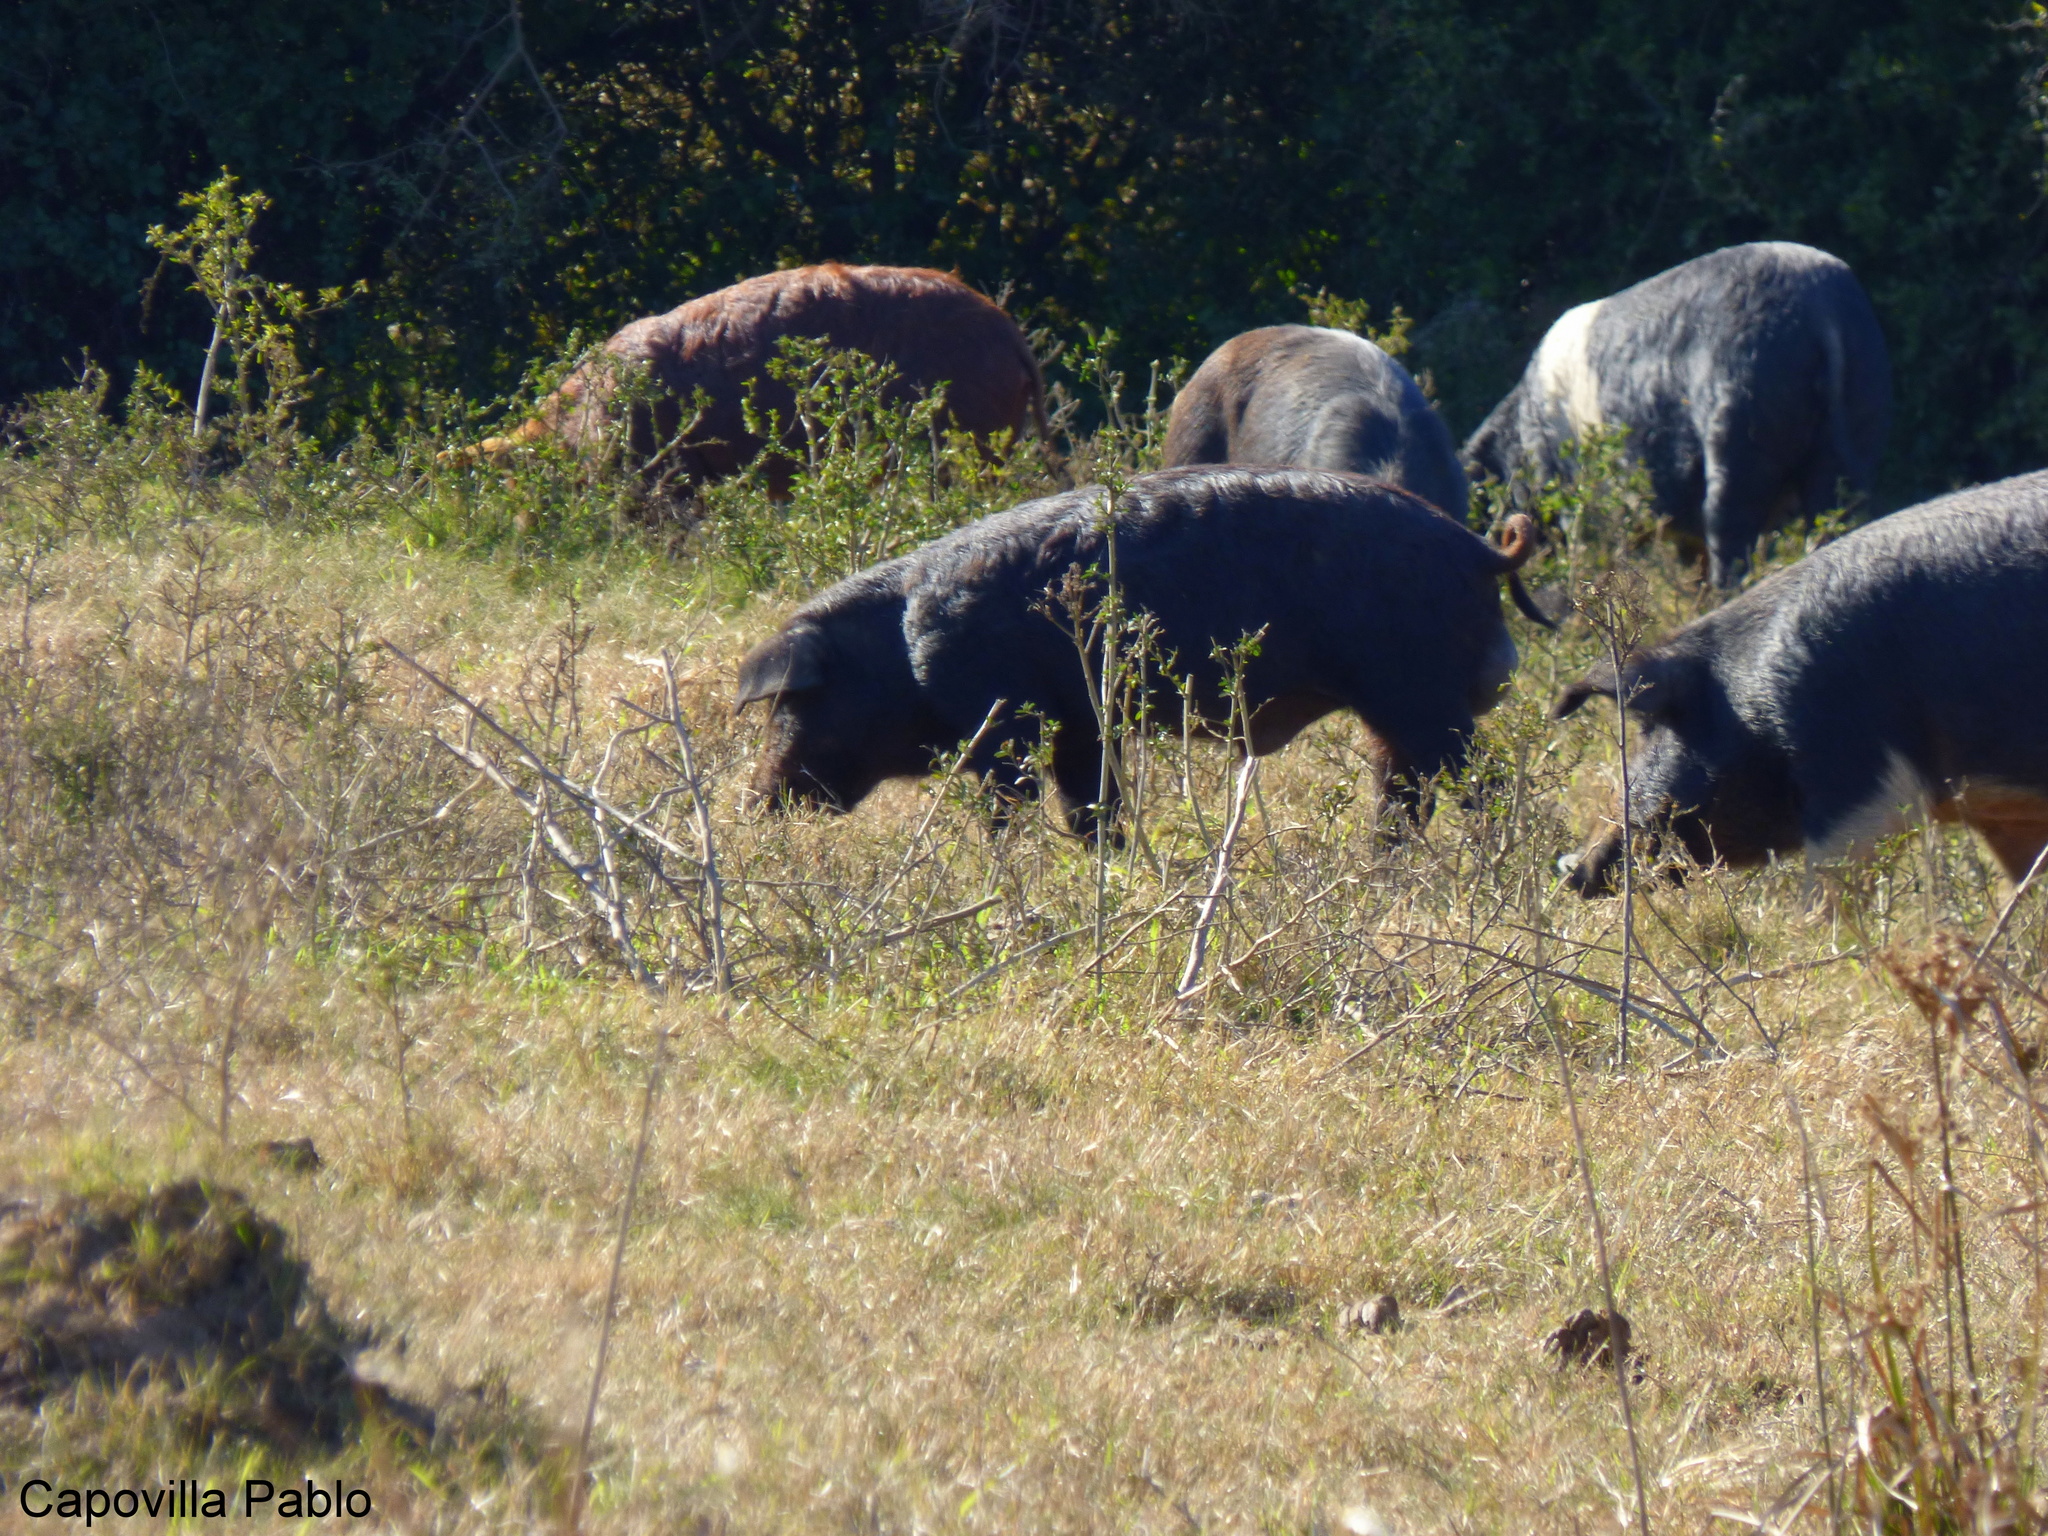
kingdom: Animalia
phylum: Chordata
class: Mammalia
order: Artiodactyla
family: Suidae
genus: Sus
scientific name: Sus scrofa
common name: Wild boar
